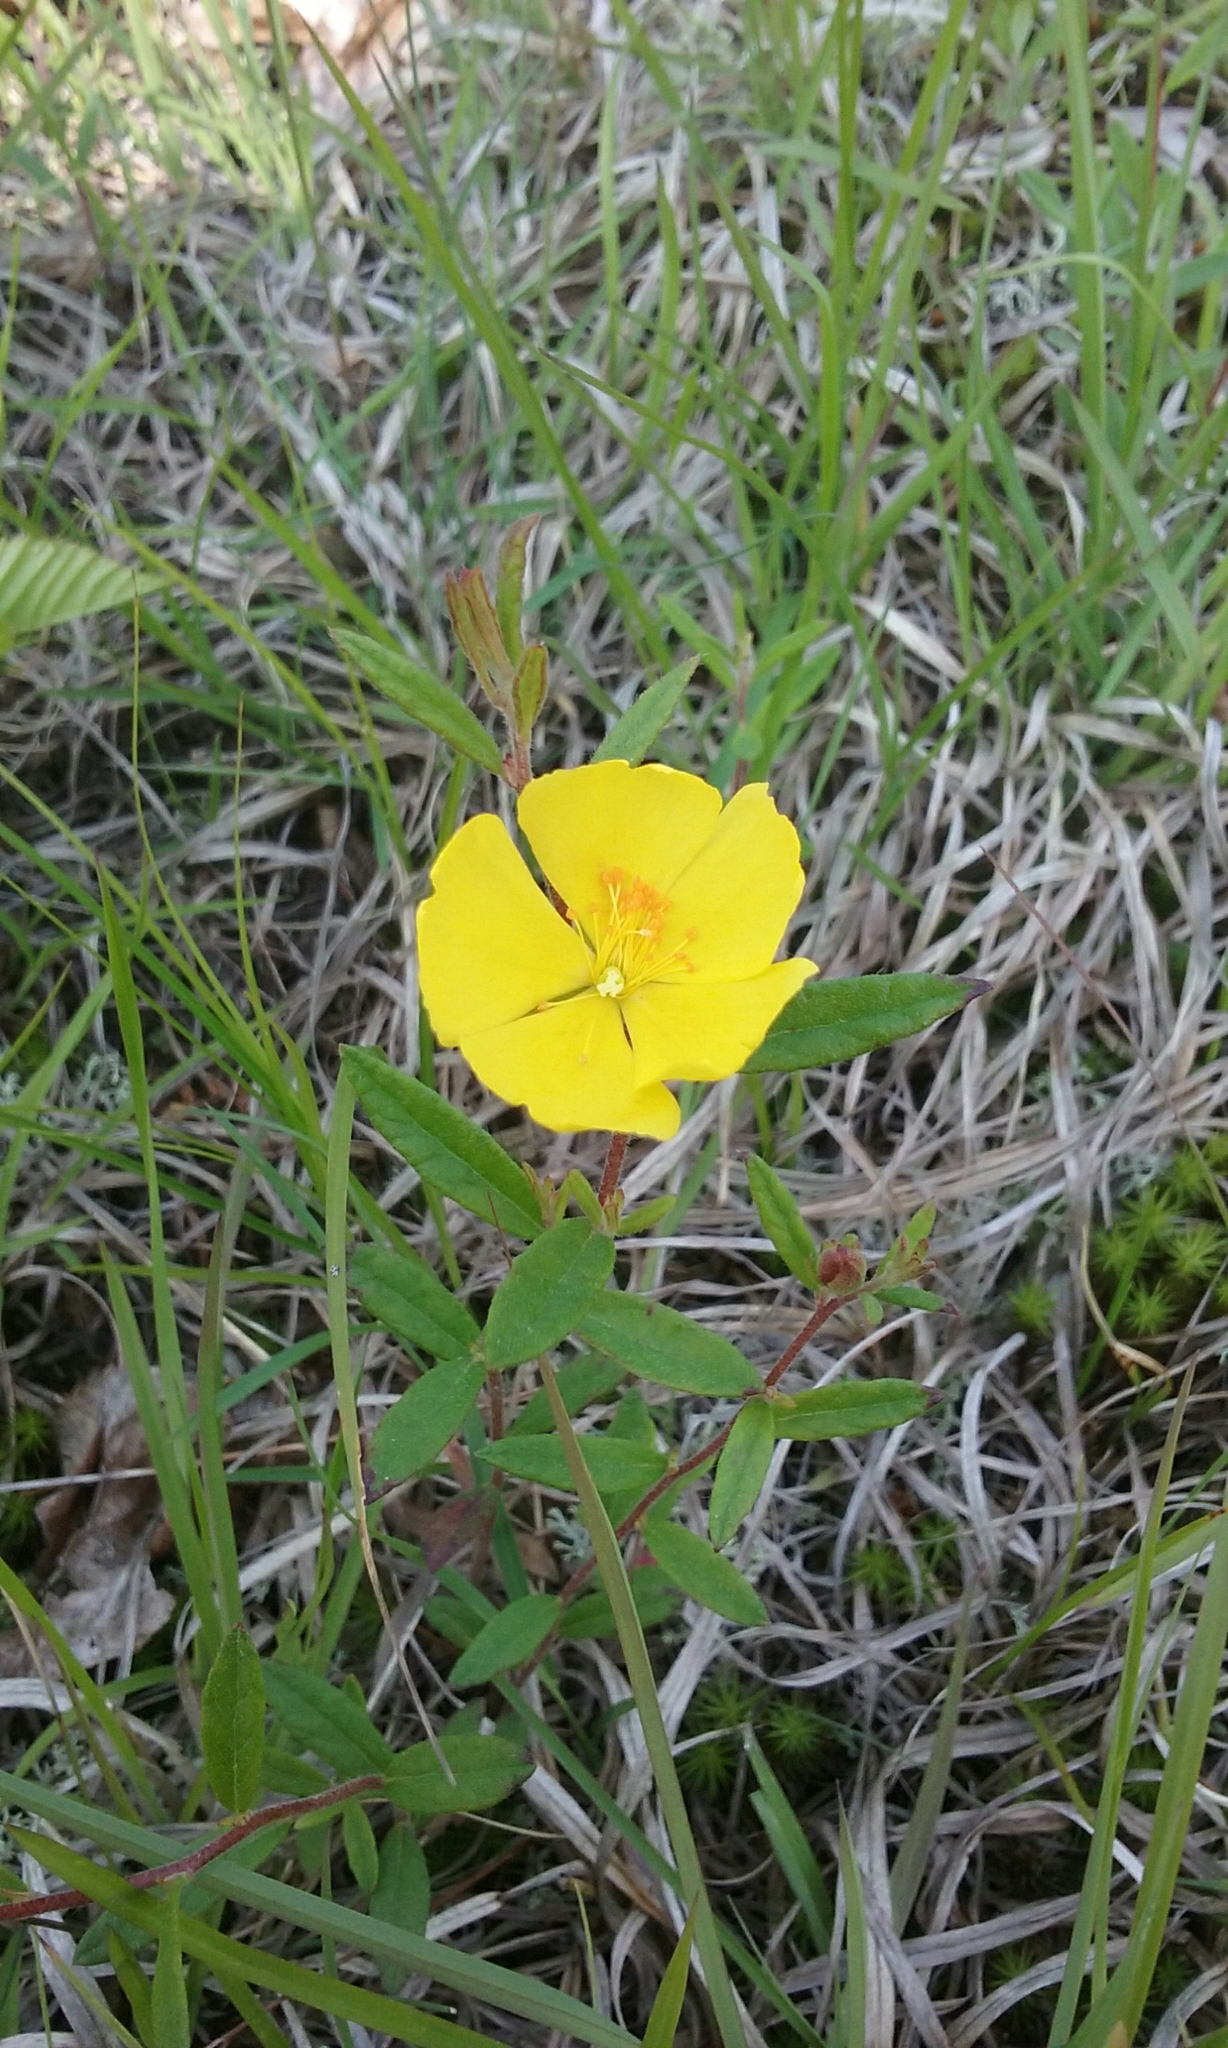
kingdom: Plantae
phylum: Tracheophyta
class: Magnoliopsida
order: Malvales
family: Cistaceae
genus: Crocanthemum
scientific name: Crocanthemum canadense
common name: Canada frostweed
